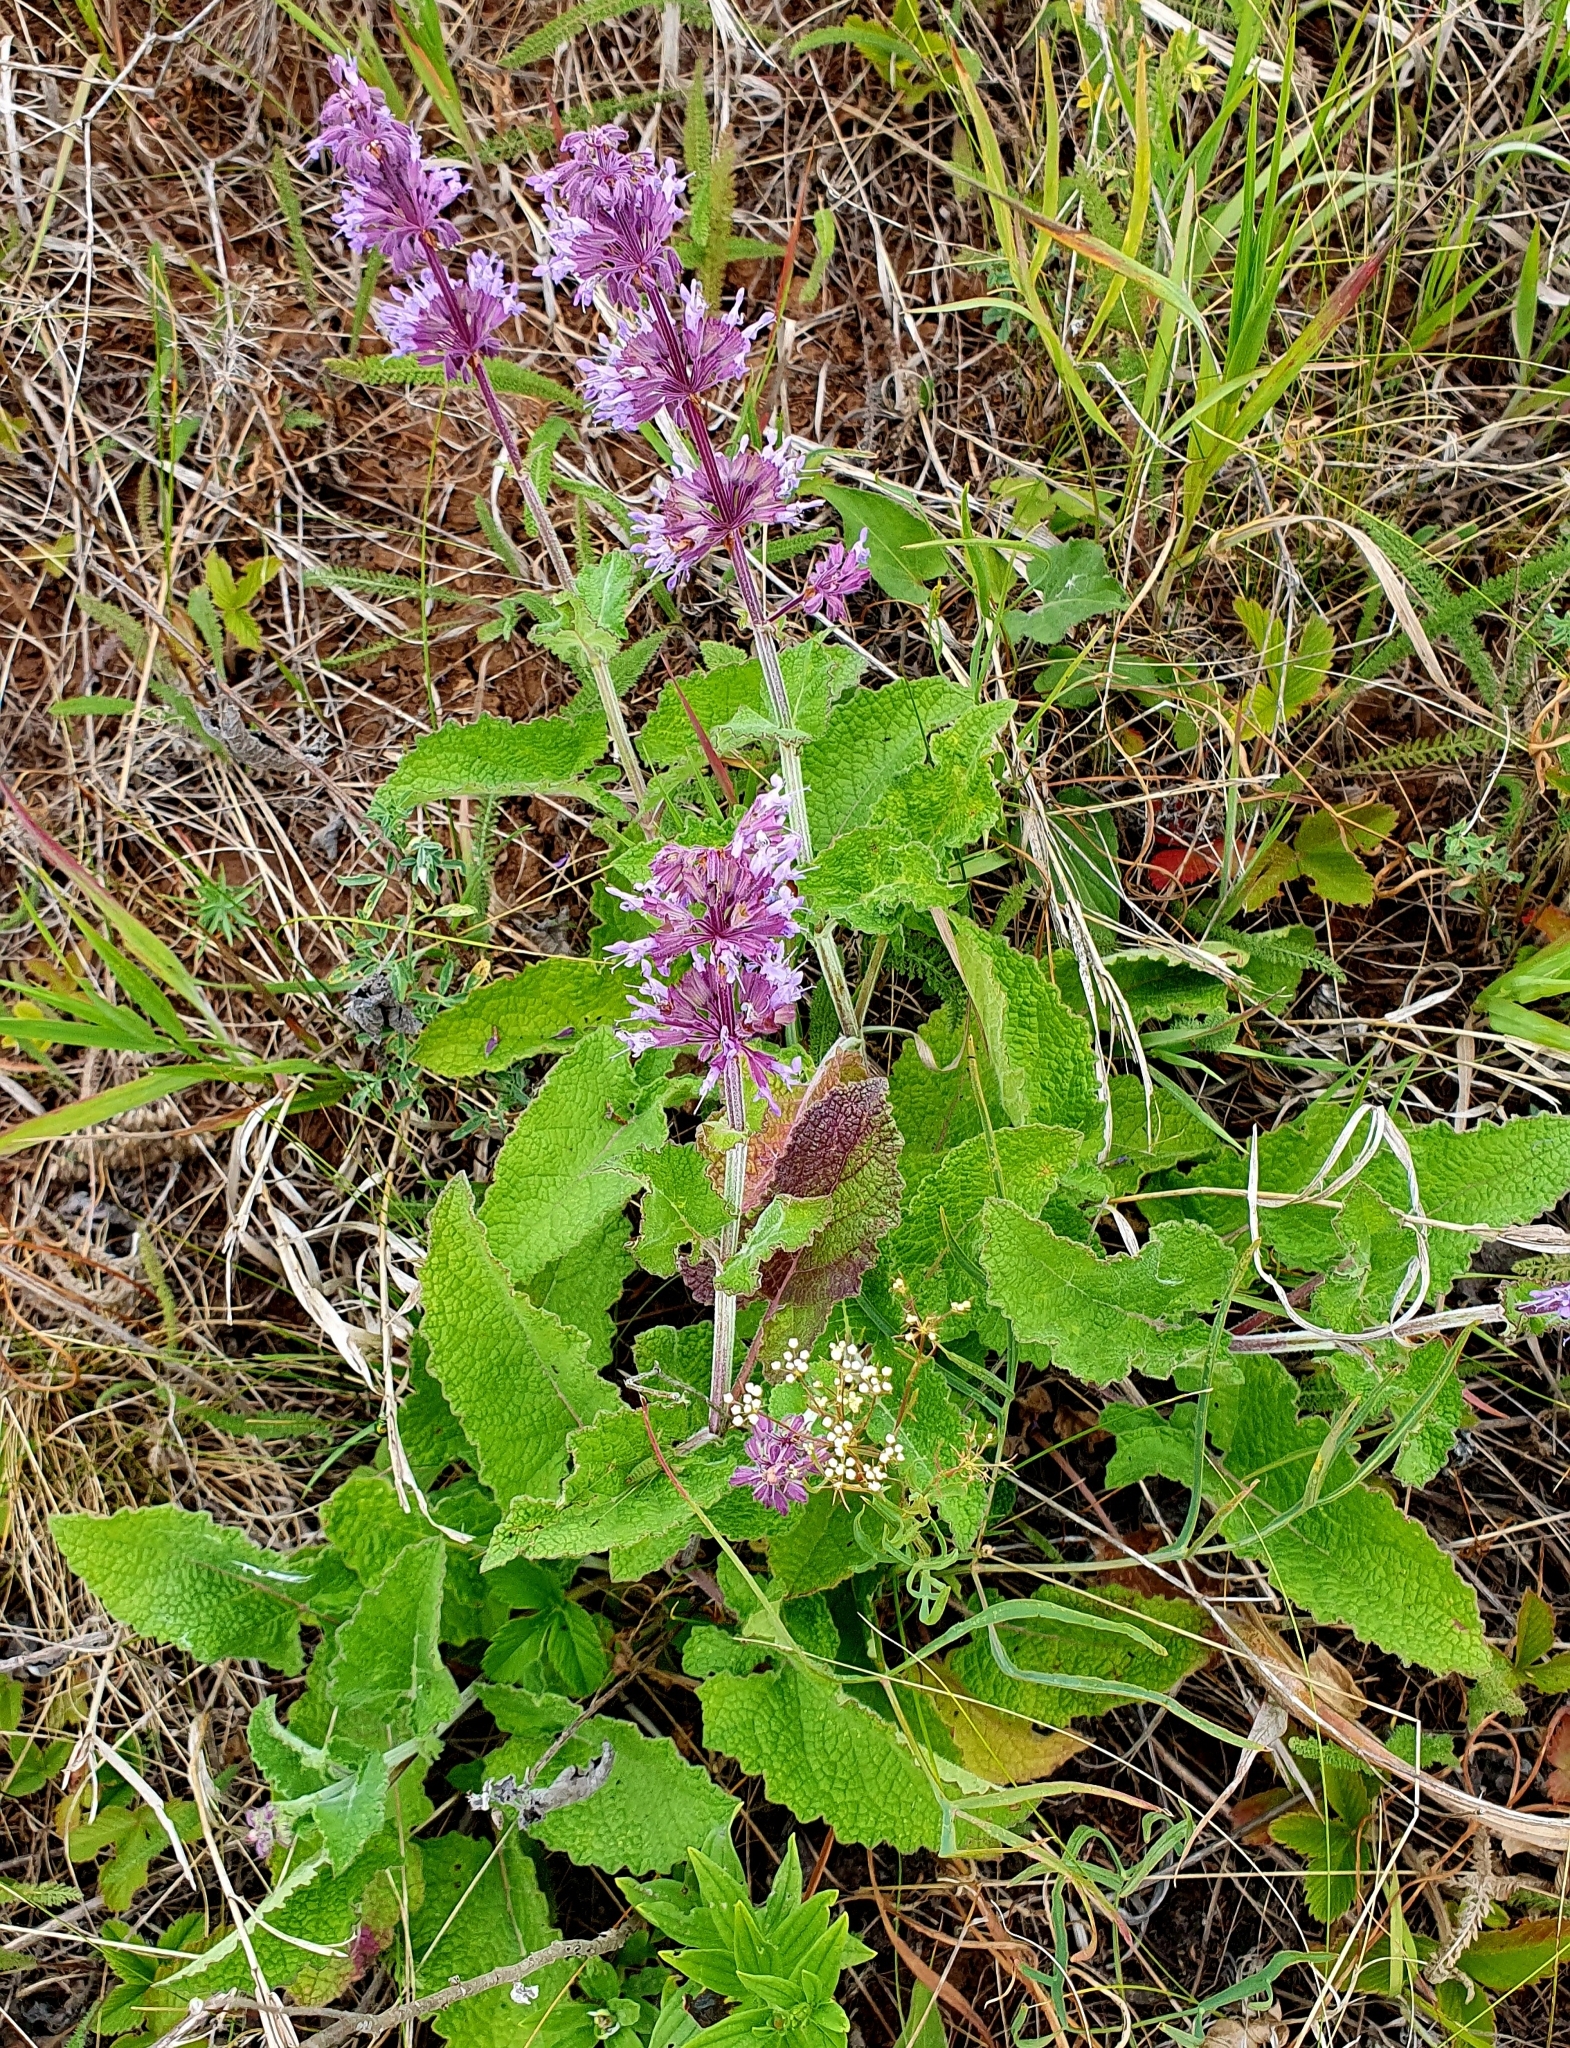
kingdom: Plantae
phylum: Tracheophyta
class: Magnoliopsida
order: Lamiales
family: Lamiaceae
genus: Salvia
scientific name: Salvia verticillata
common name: Whorled clary
